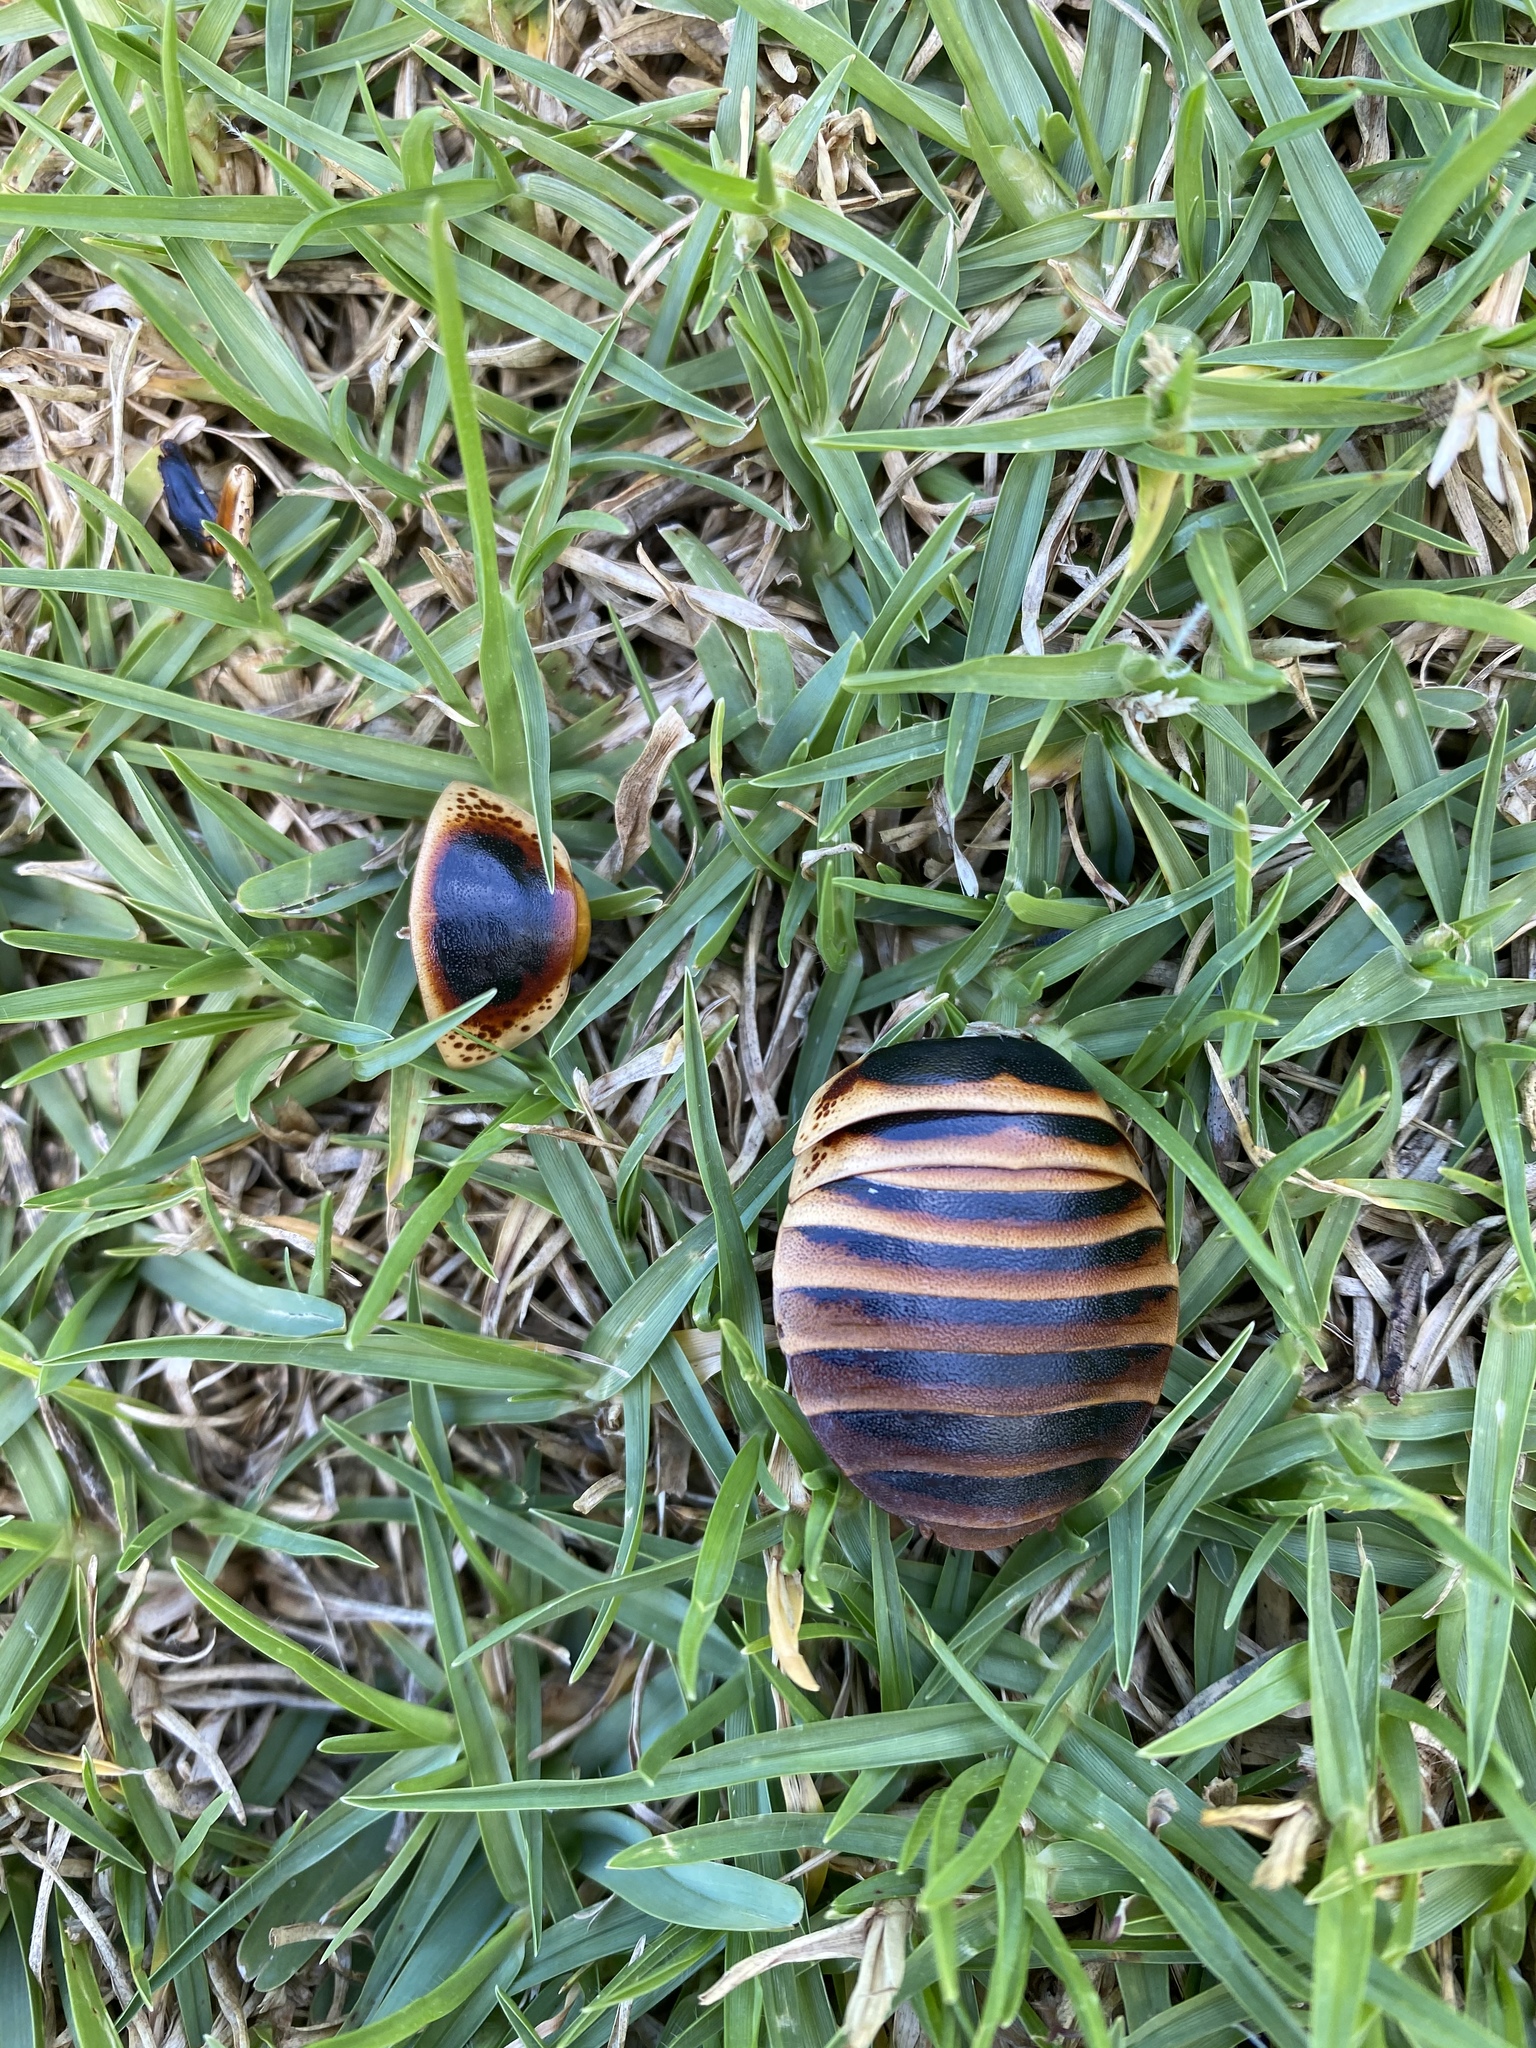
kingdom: Animalia
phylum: Arthropoda
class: Insecta
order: Blattodea
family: Blaberidae
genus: Aptera
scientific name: Aptera fusca
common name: Cape mountain cockroach
